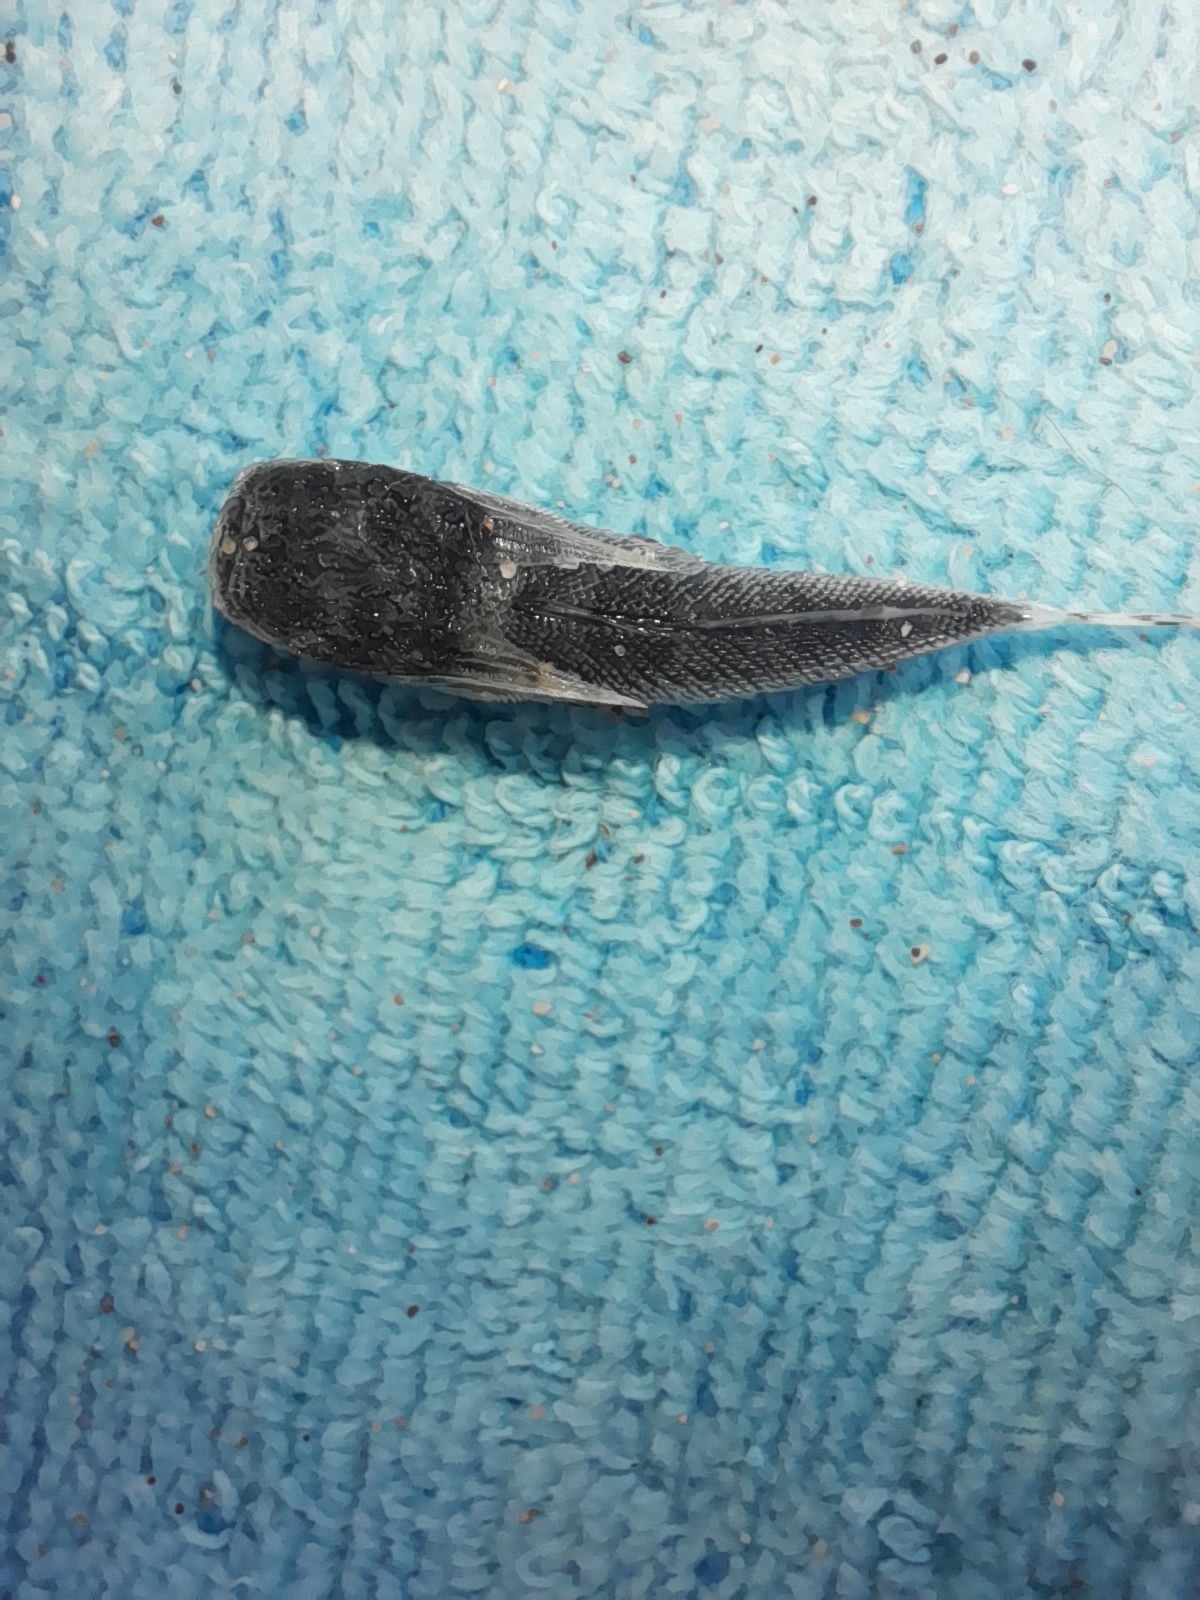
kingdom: Animalia
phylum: Chordata
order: Scorpaeniformes
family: Dactylopteridae
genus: Dactylopterus
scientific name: Dactylopterus volitans
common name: Flying gurnard
